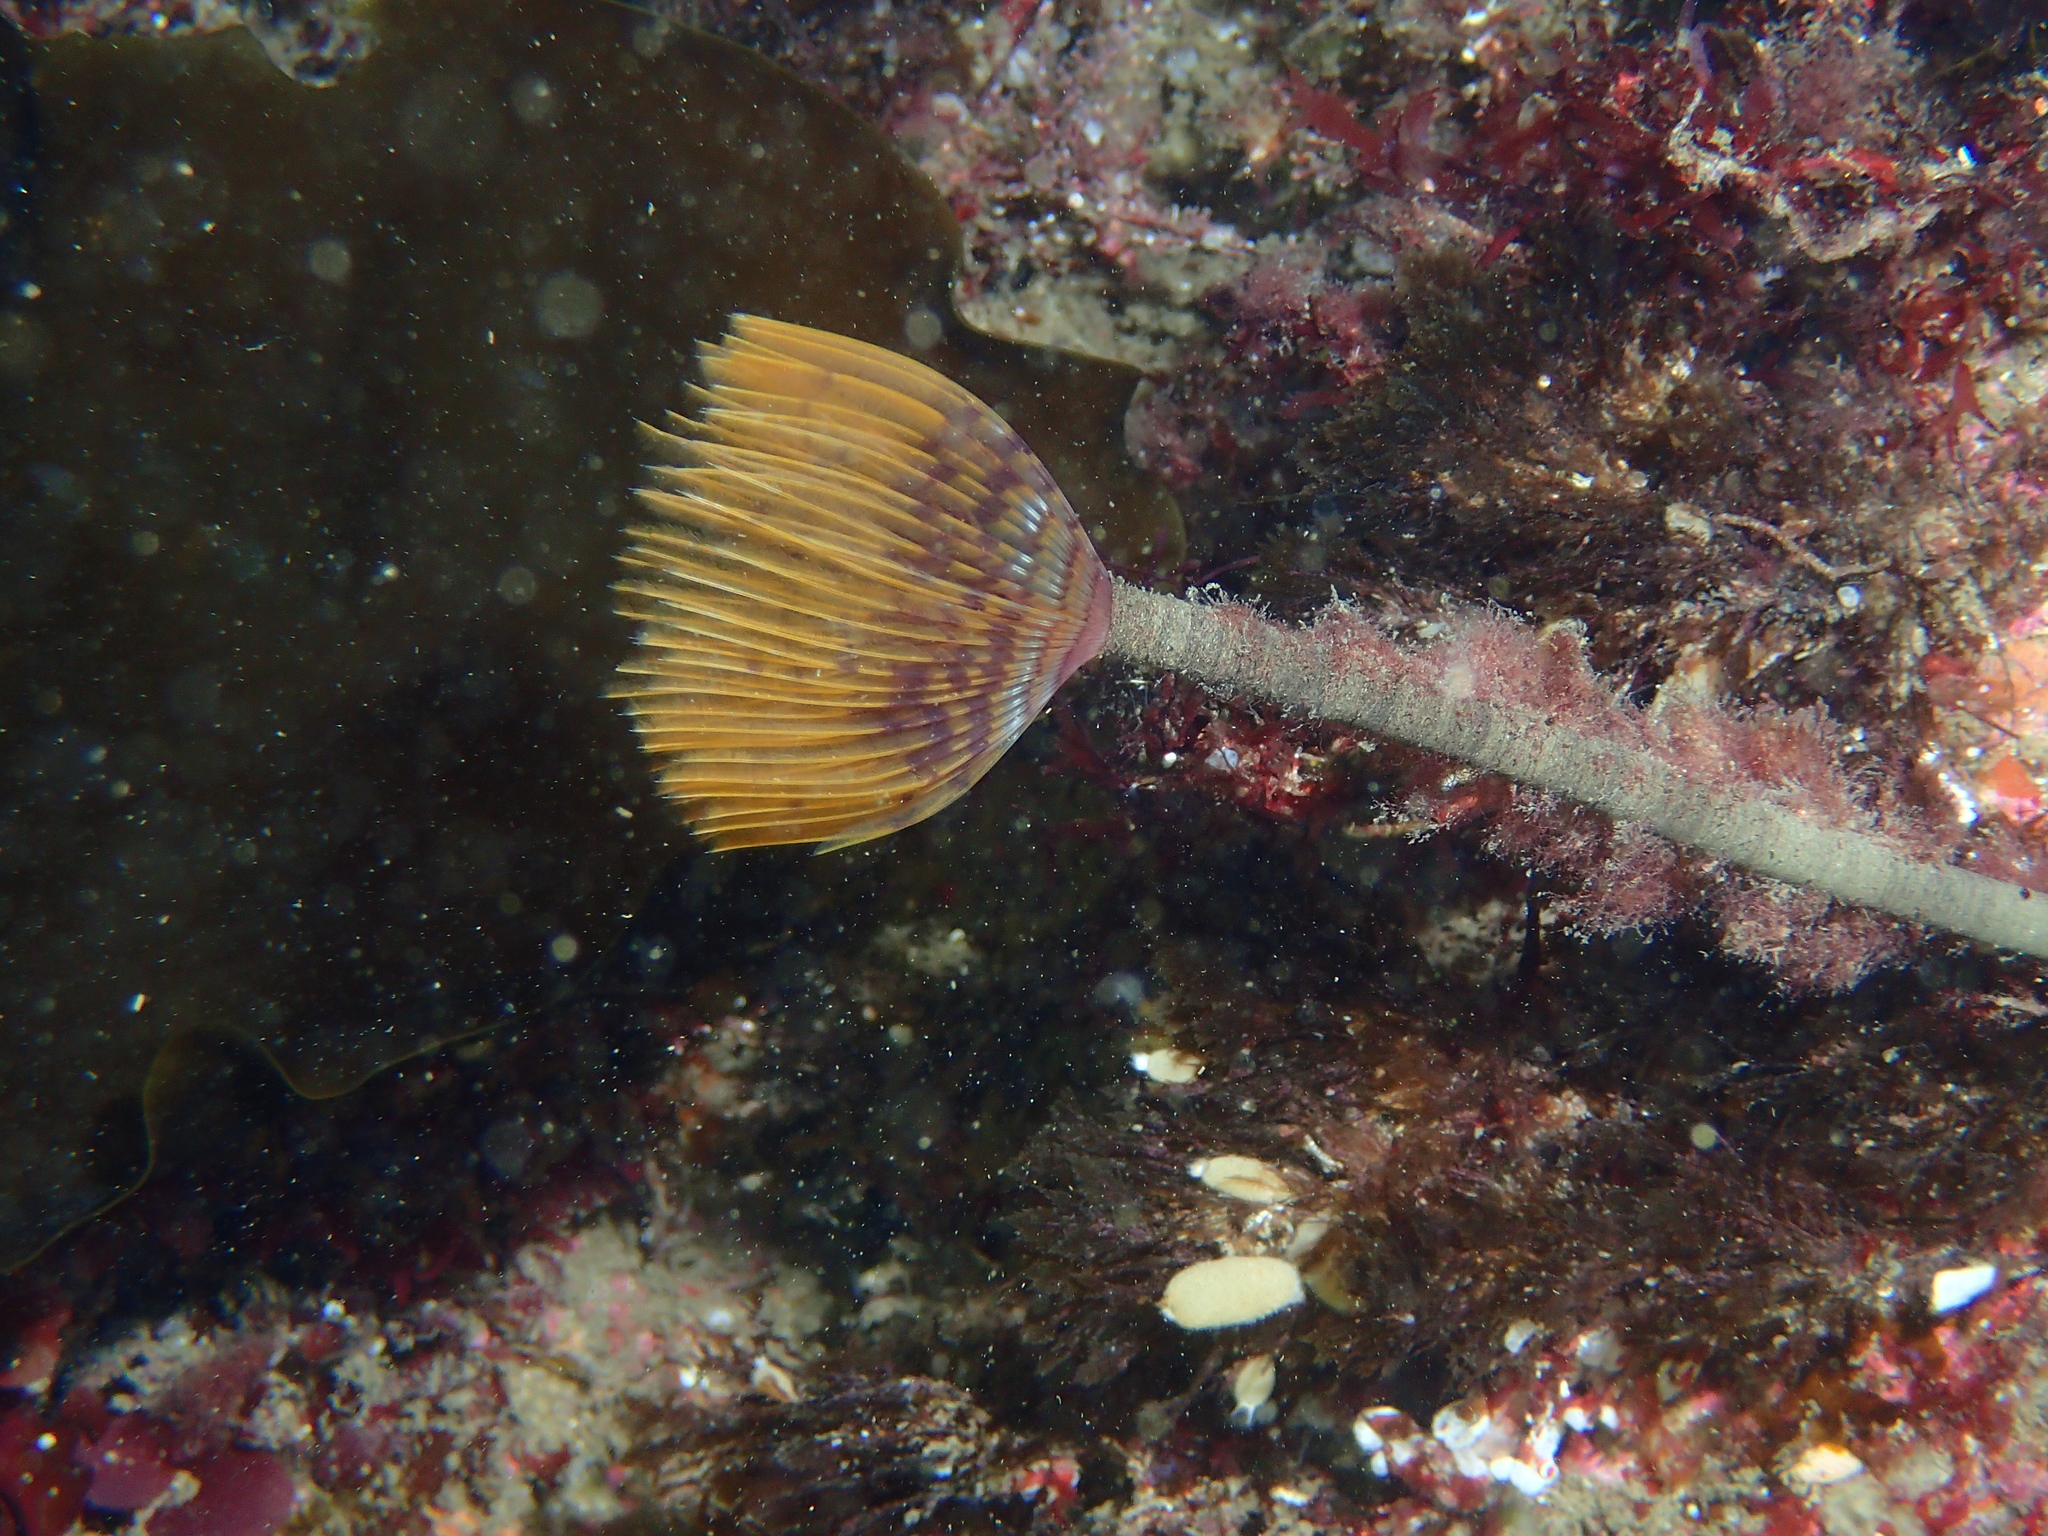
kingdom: Animalia
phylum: Annelida
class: Polychaeta
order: Sabellida
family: Sabellidae
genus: Sabella
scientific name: Sabella spallanzanii
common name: Feather duster worm
